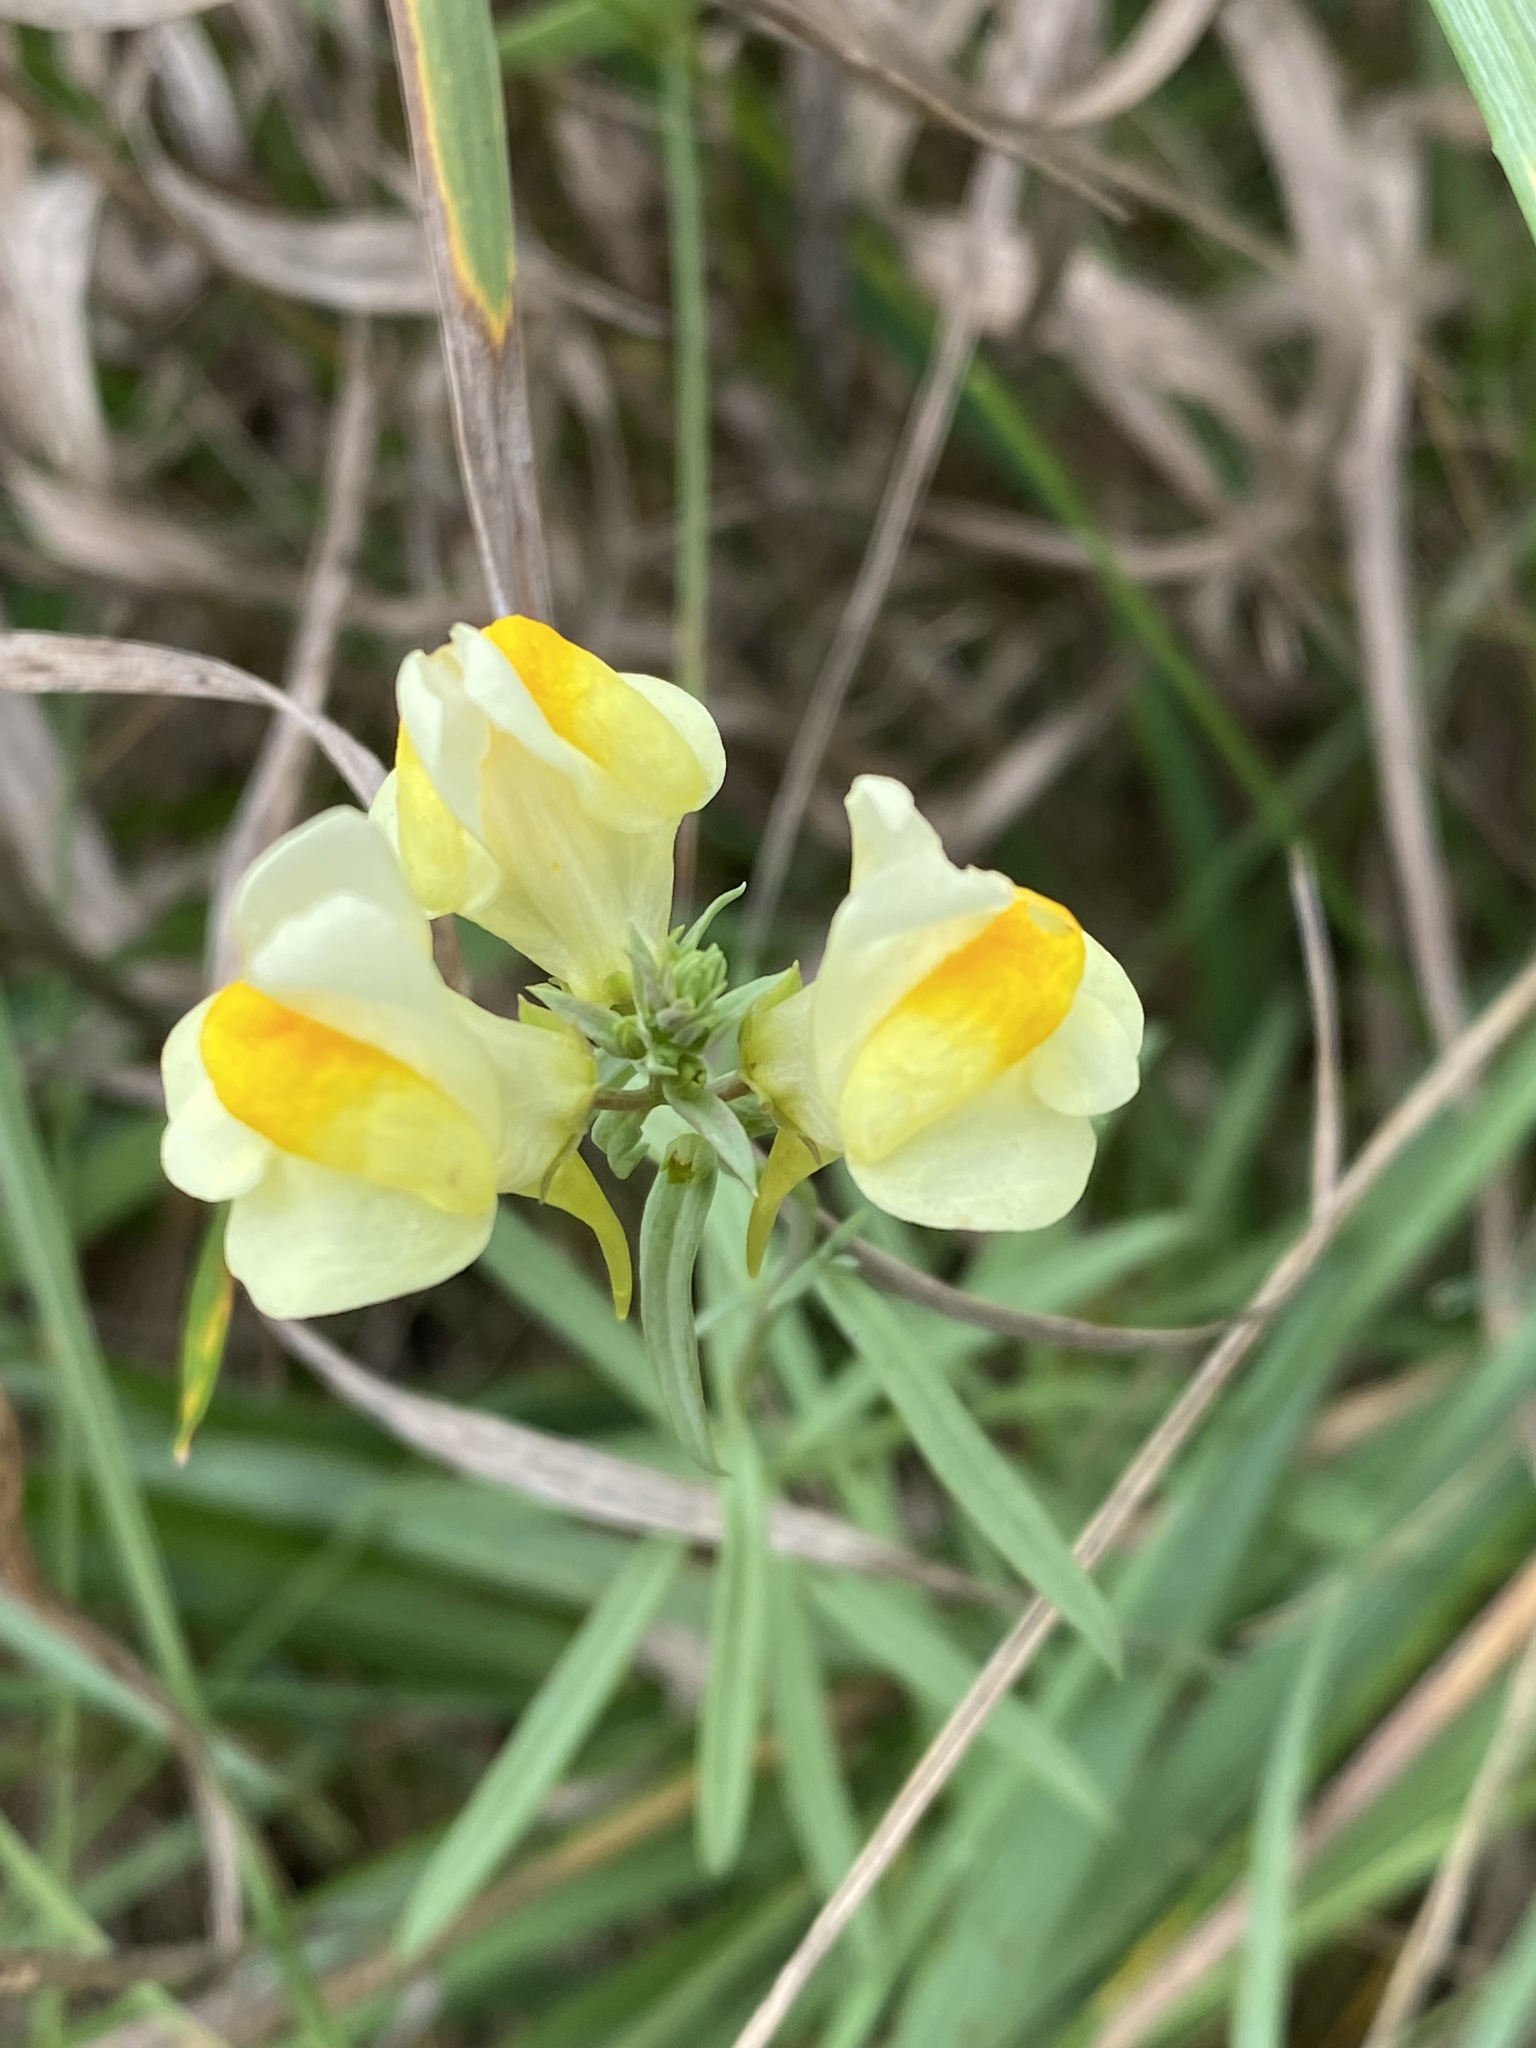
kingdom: Plantae
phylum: Tracheophyta
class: Magnoliopsida
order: Lamiales
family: Plantaginaceae
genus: Linaria
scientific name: Linaria vulgaris
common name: Butter and eggs
